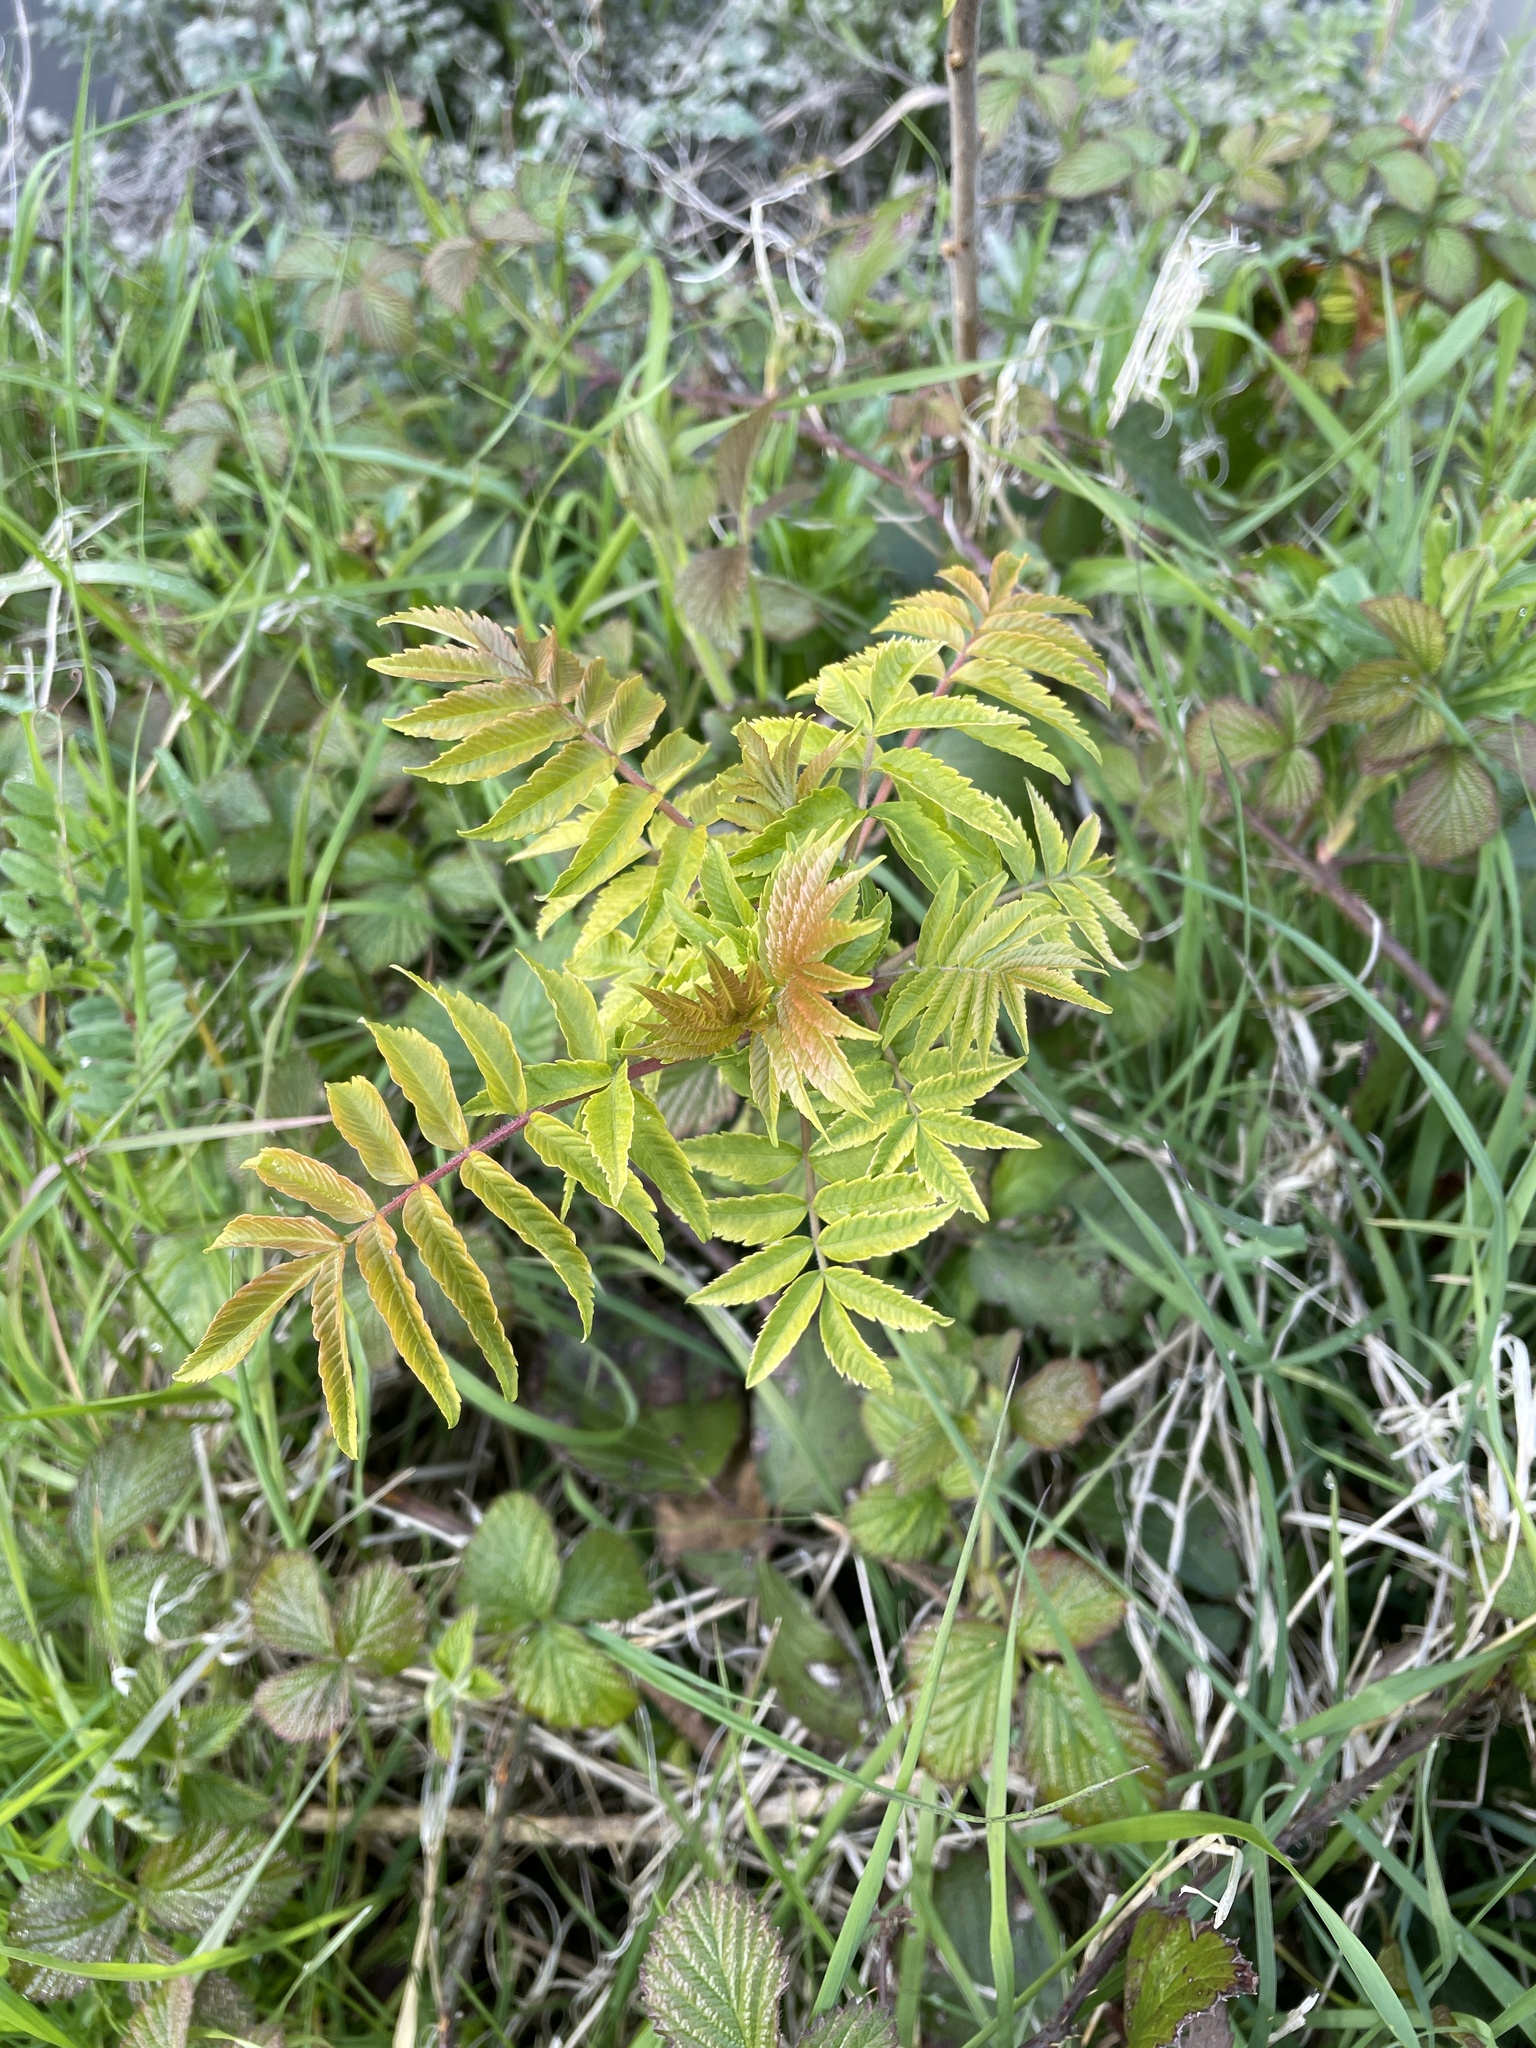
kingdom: Plantae
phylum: Tracheophyta
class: Magnoliopsida
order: Sapindales
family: Anacardiaceae
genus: Rhus
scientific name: Rhus typhina
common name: Staghorn sumac
